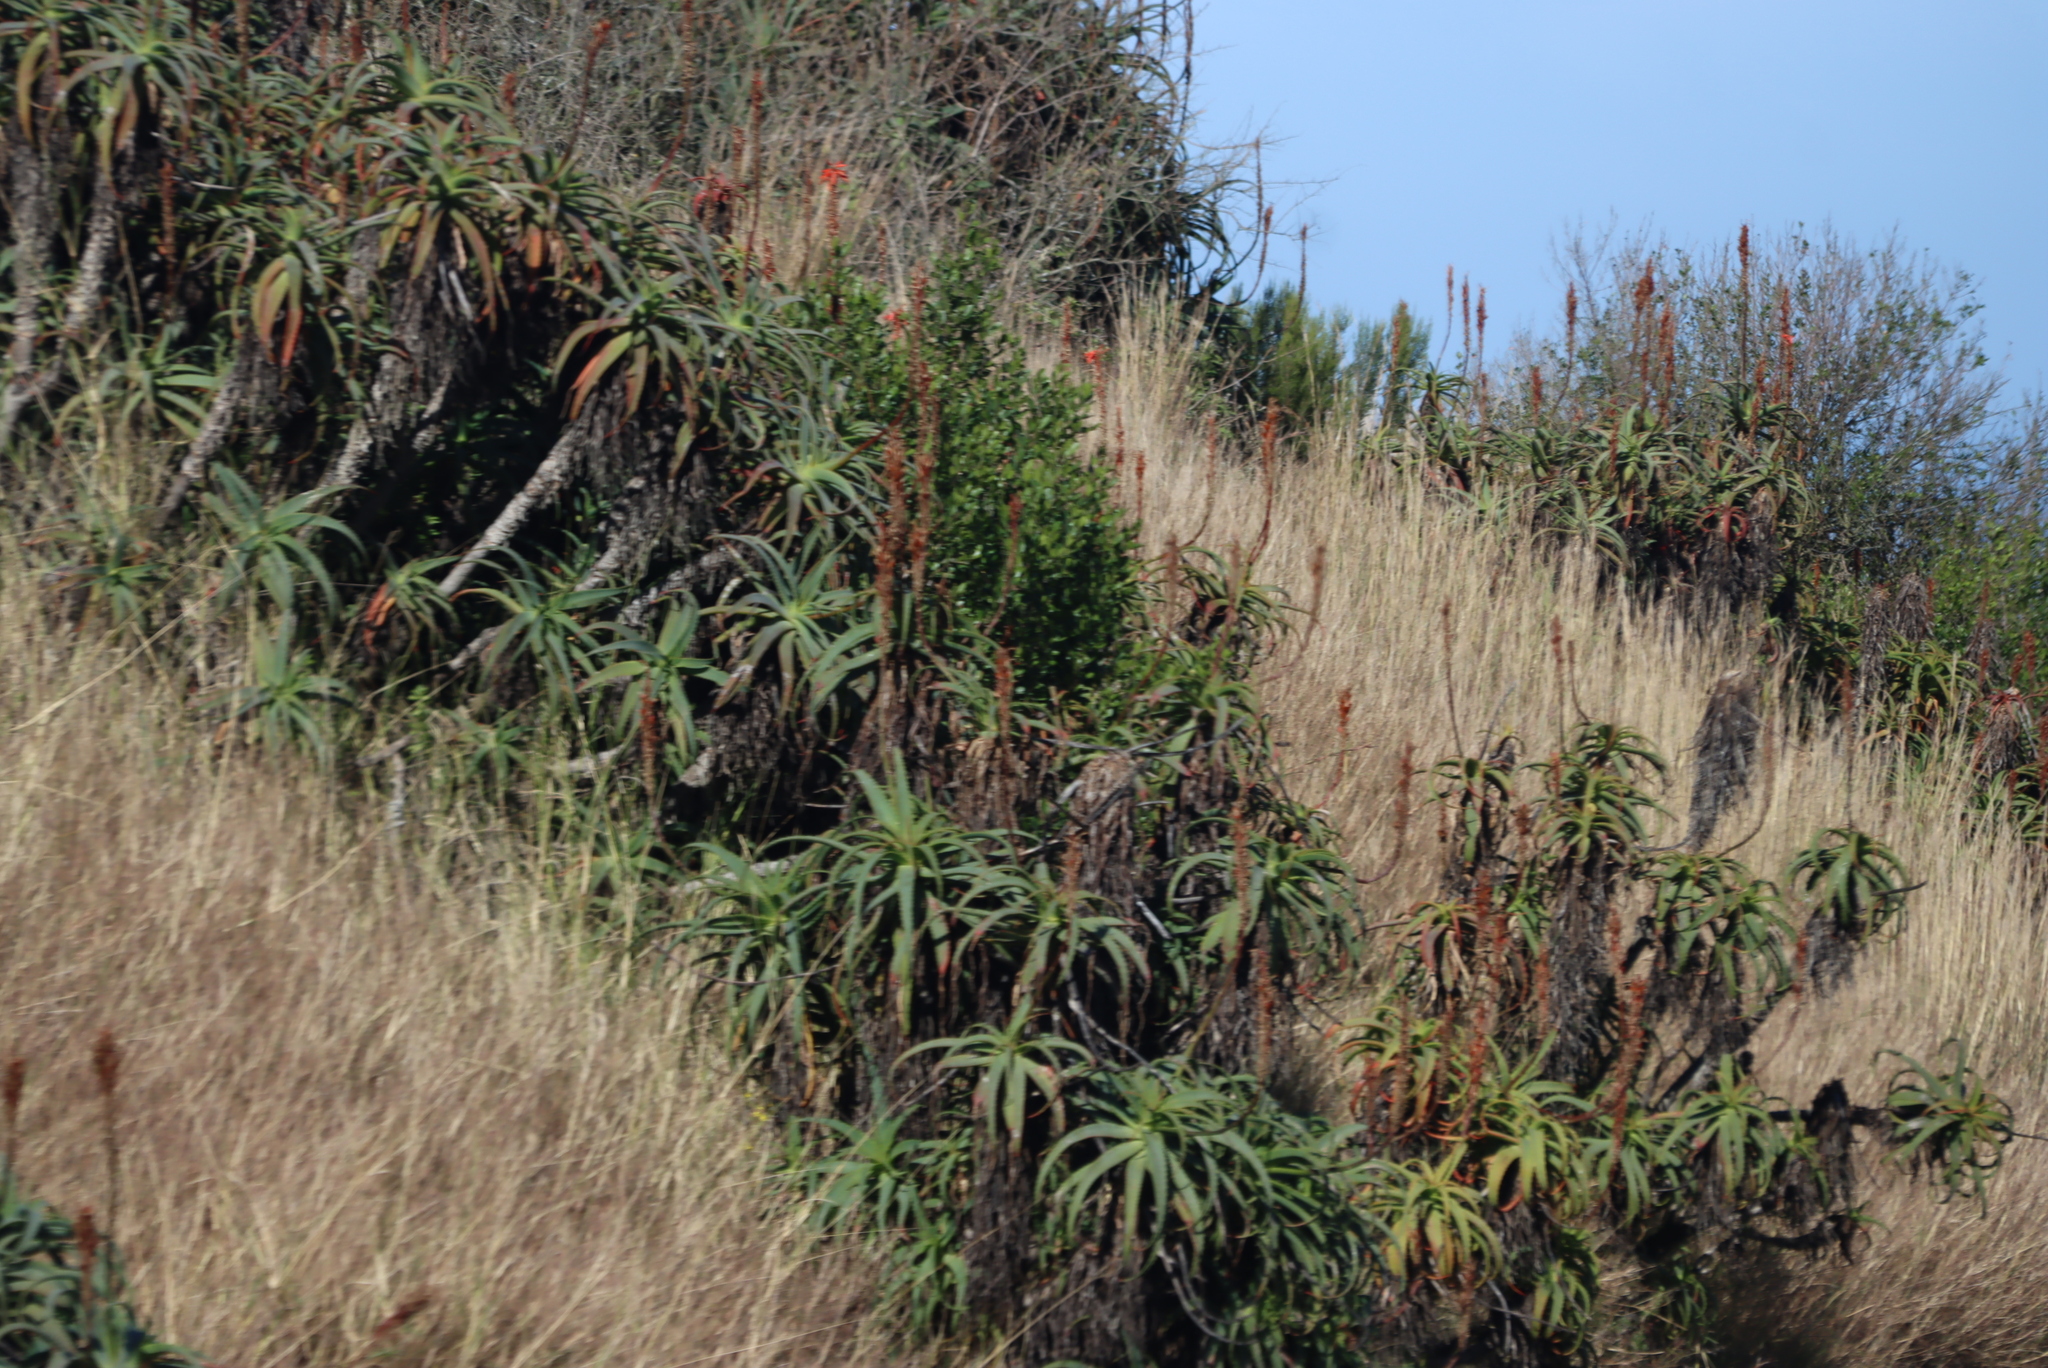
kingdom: Plantae
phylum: Tracheophyta
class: Liliopsida
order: Asparagales
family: Asphodelaceae
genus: Aloe
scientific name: Aloe arborescens
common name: Candelabra aloe
